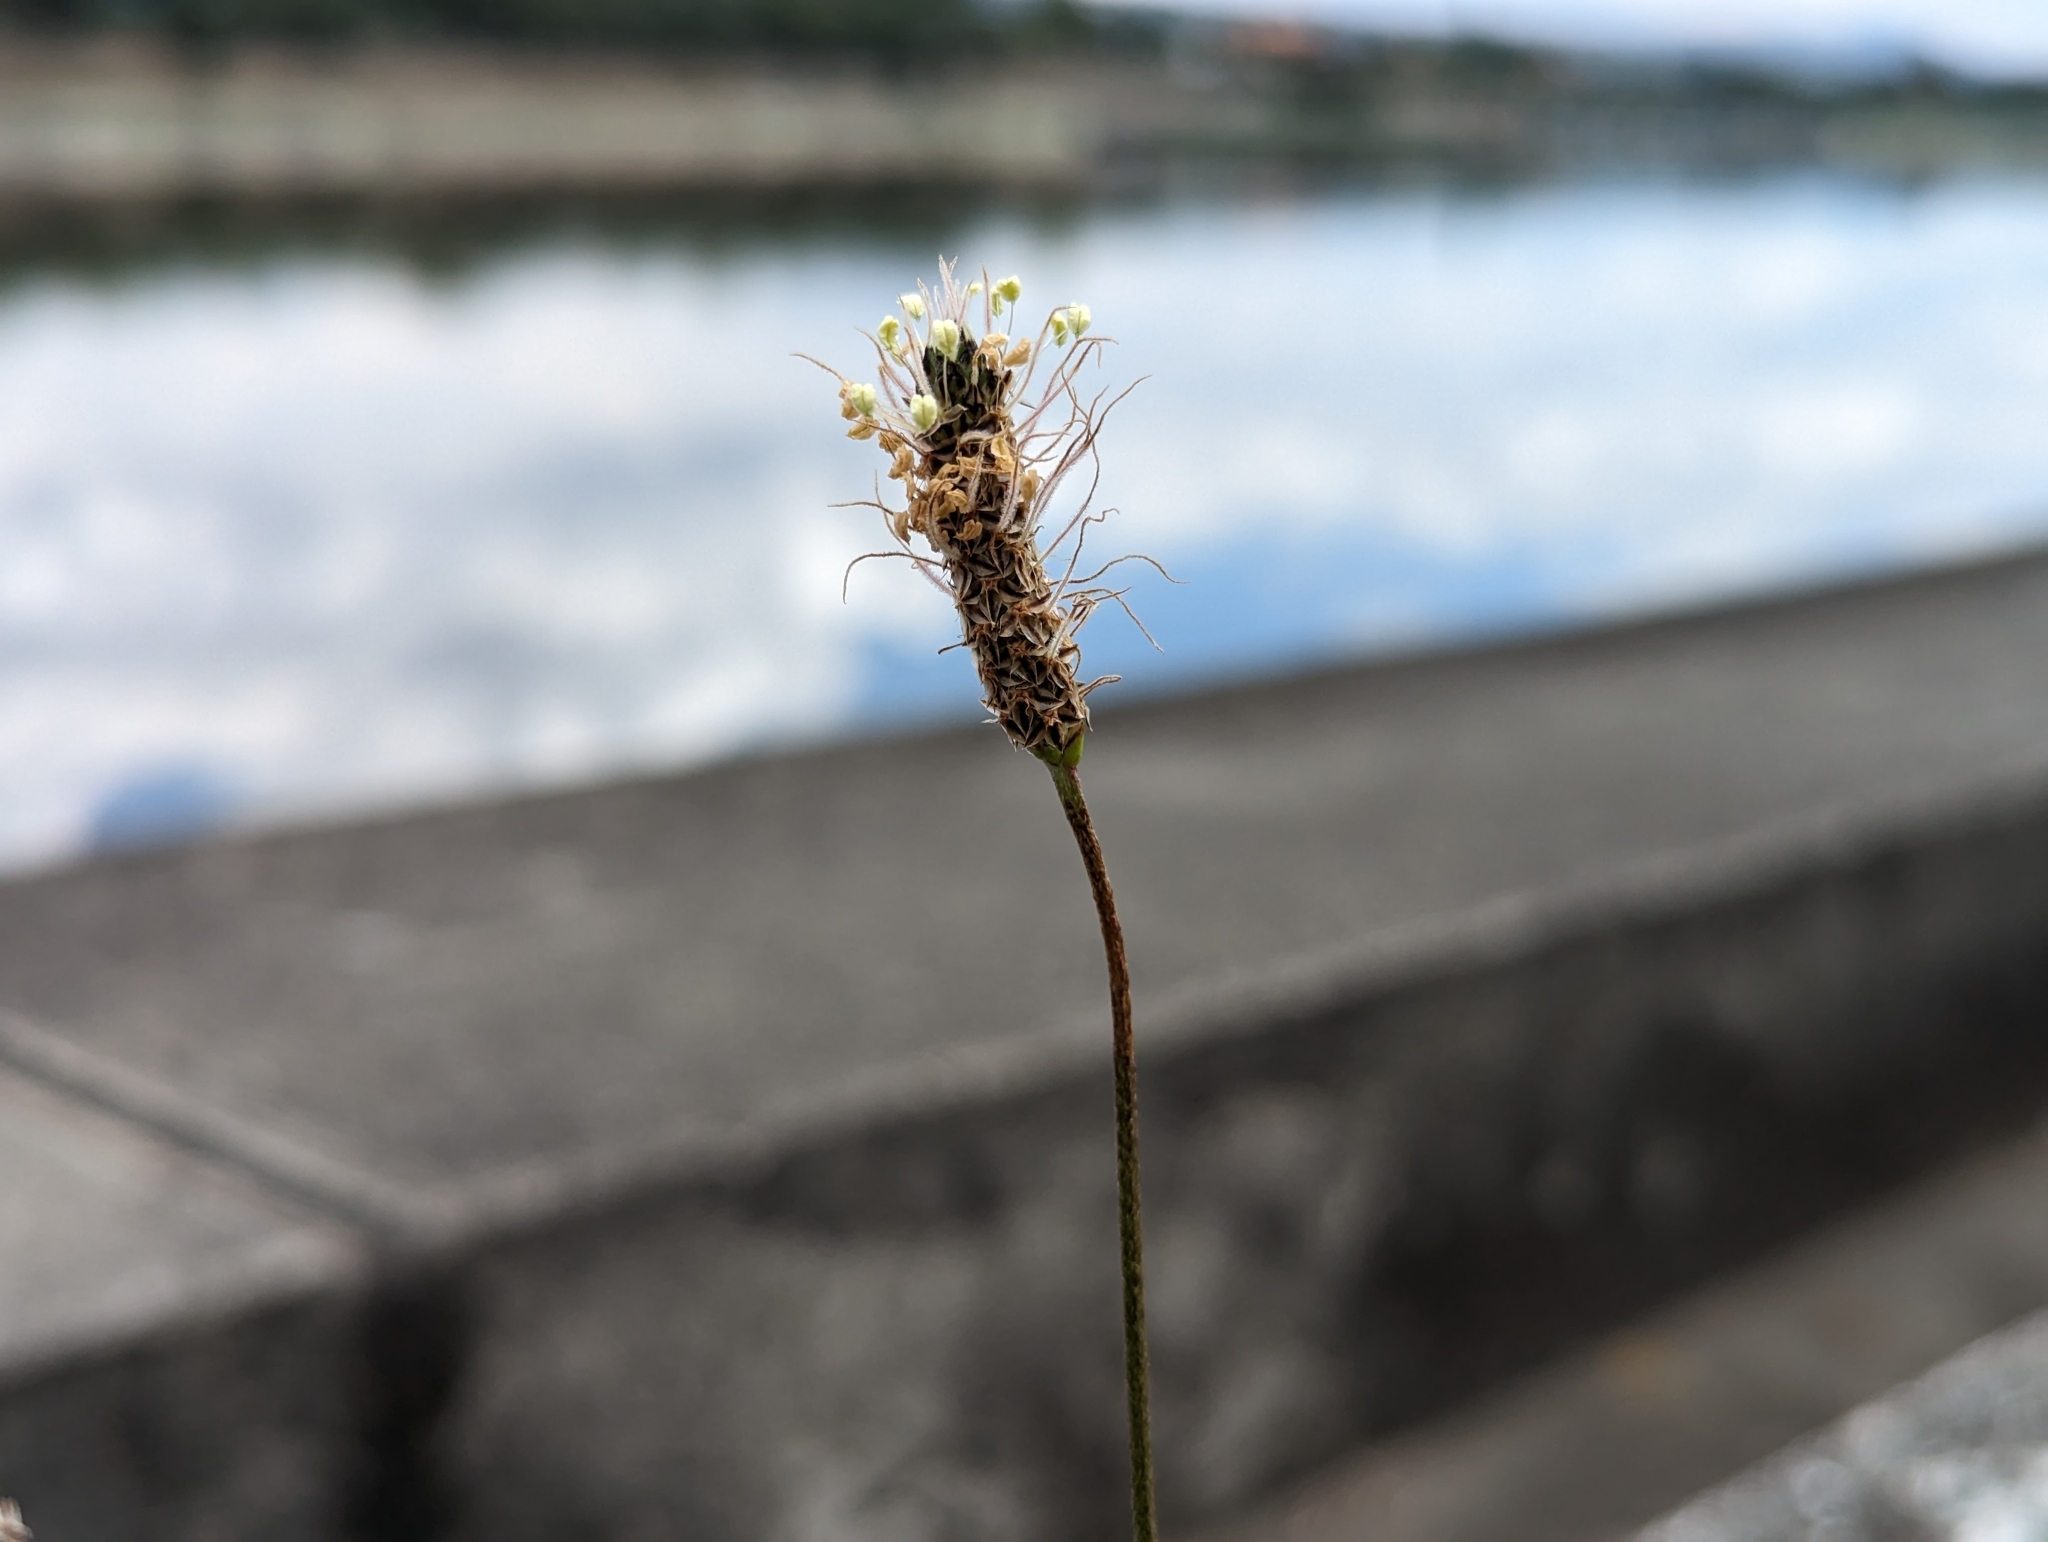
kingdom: Plantae
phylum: Tracheophyta
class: Magnoliopsida
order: Lamiales
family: Plantaginaceae
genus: Plantago
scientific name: Plantago lanceolata
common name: Ribwort plantain
